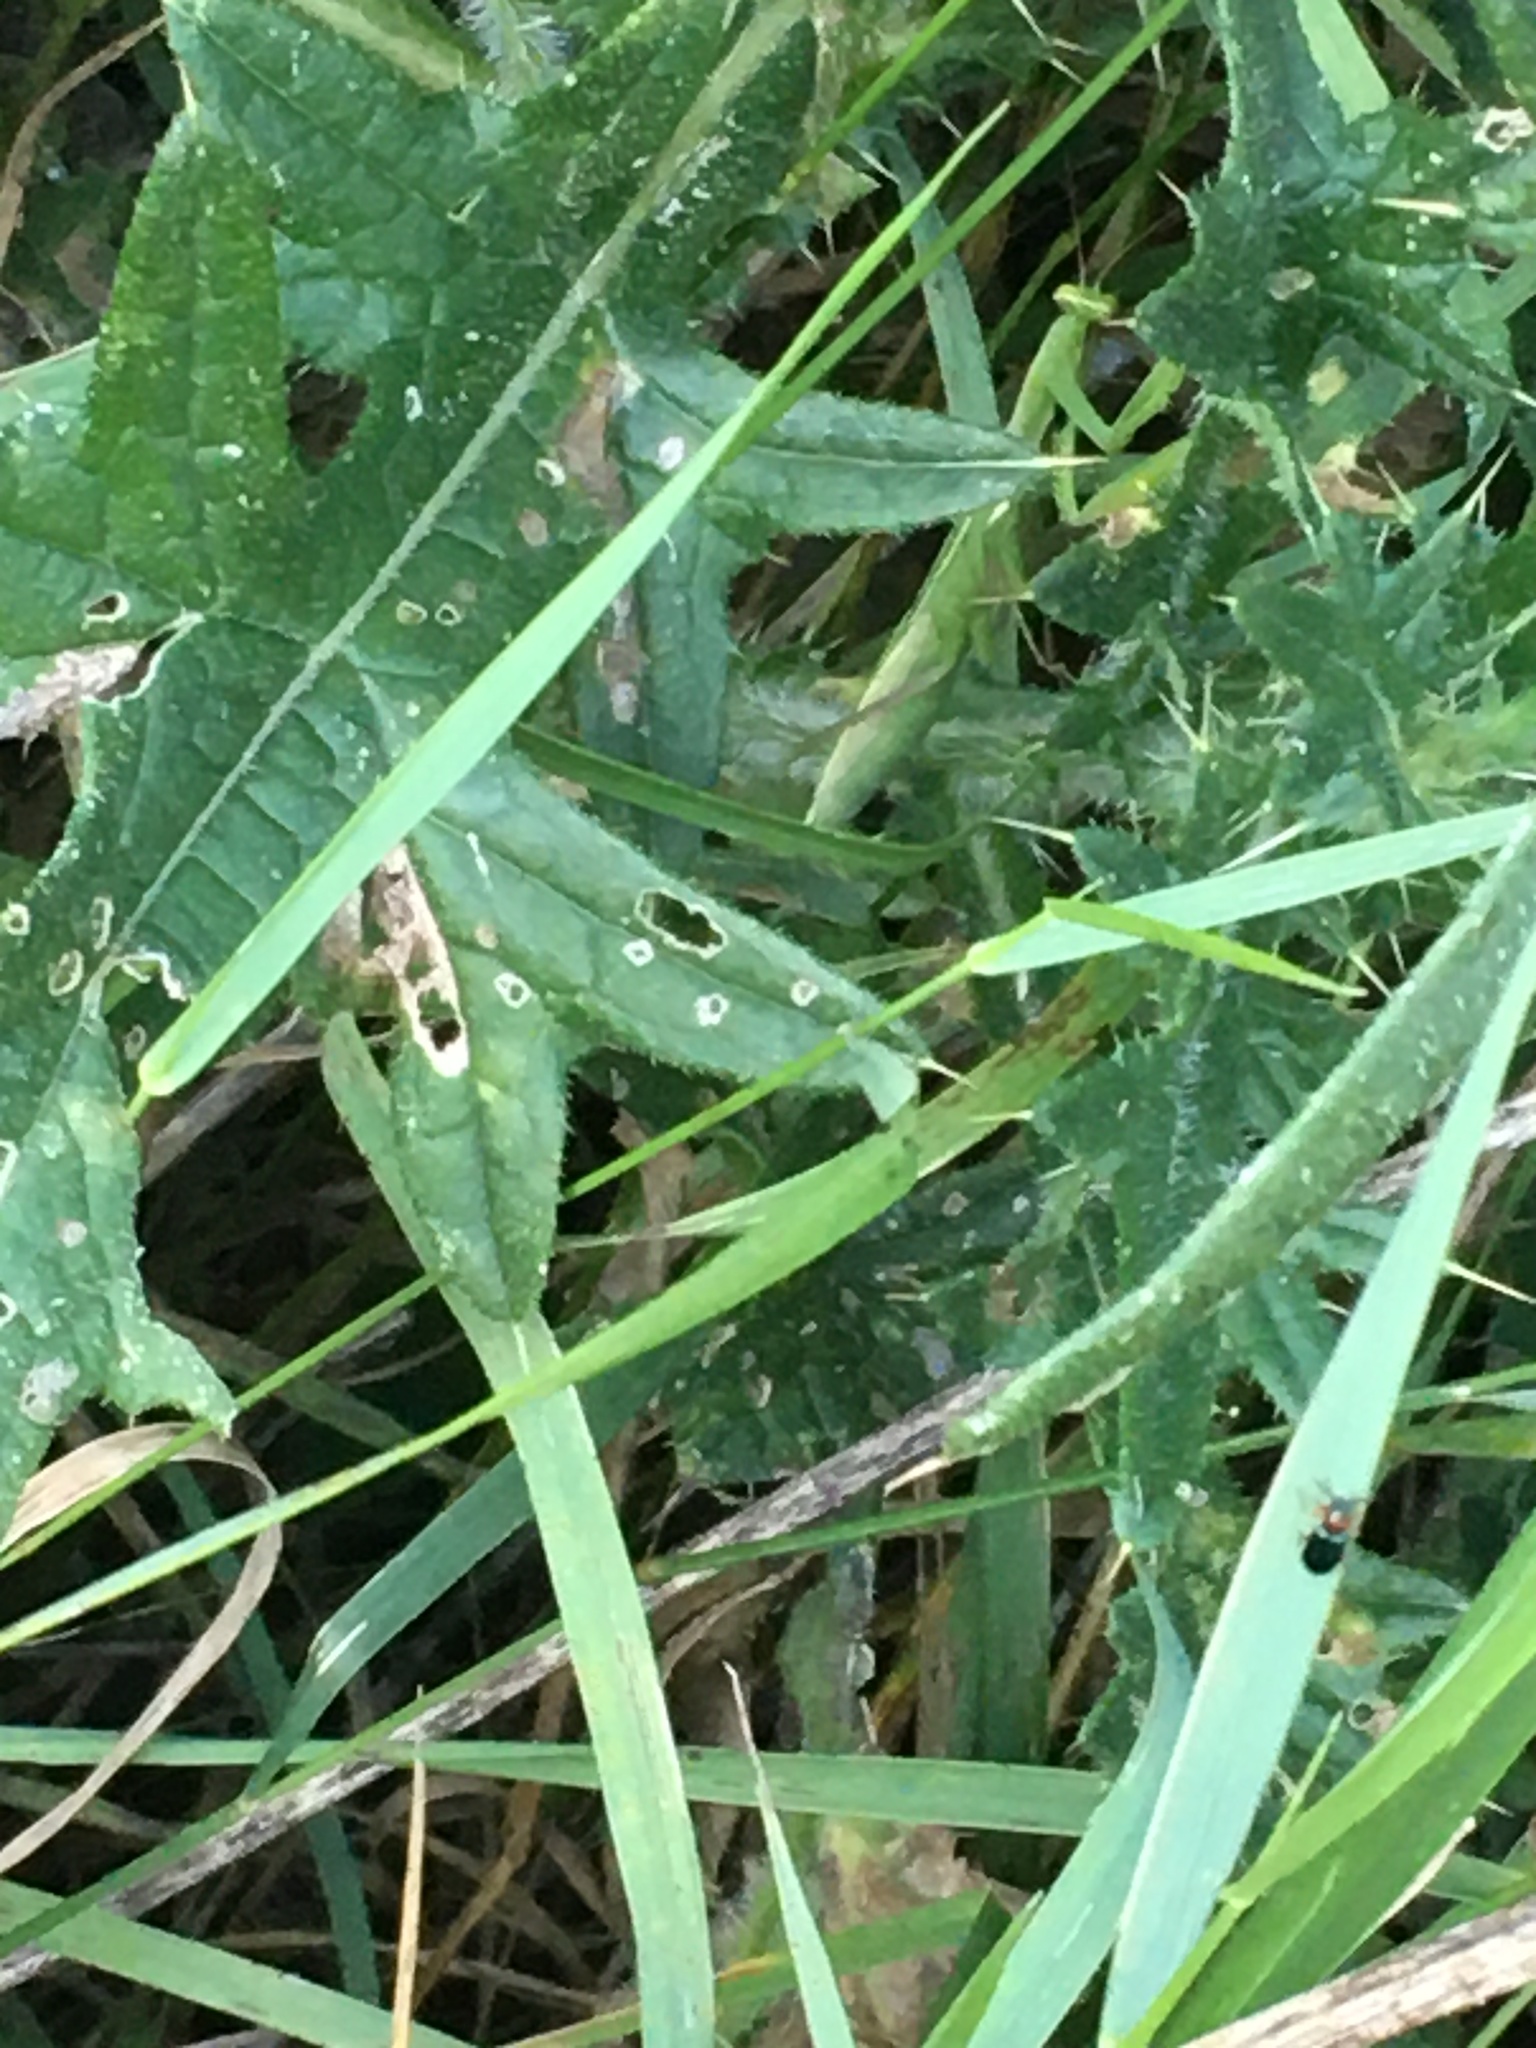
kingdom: Animalia
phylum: Arthropoda
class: Insecta
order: Mantodea
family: Mantidae
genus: Mantis
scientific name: Mantis religiosa
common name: Praying mantis
